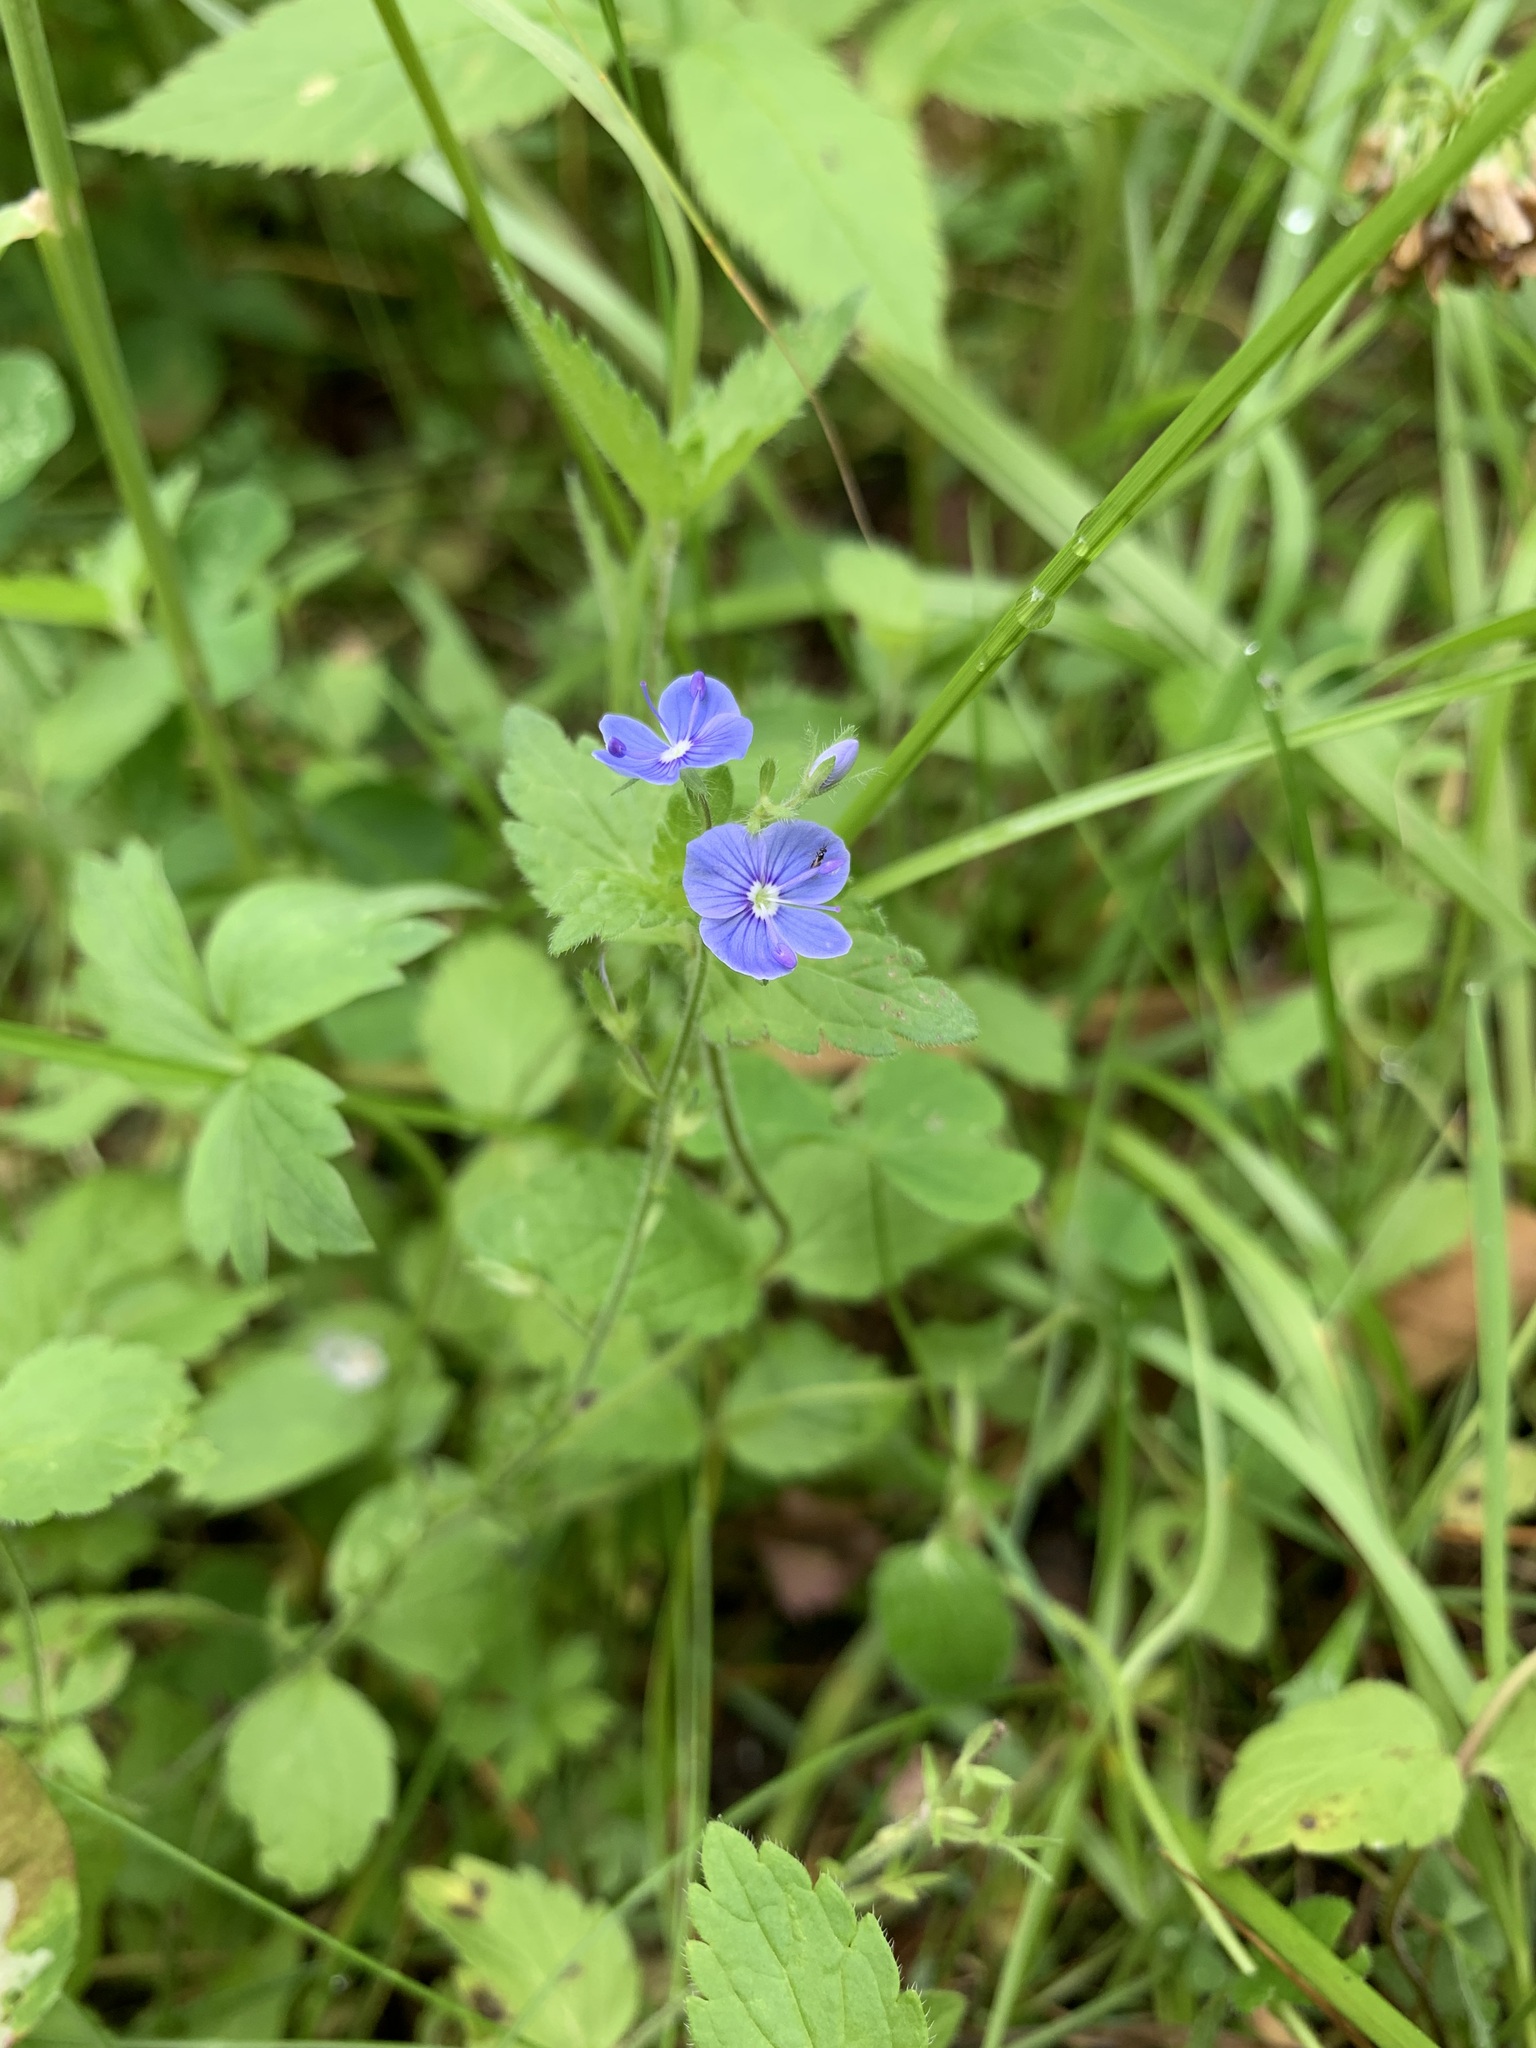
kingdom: Plantae
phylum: Tracheophyta
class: Magnoliopsida
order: Lamiales
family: Plantaginaceae
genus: Veronica
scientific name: Veronica chamaedrys
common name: Germander speedwell
